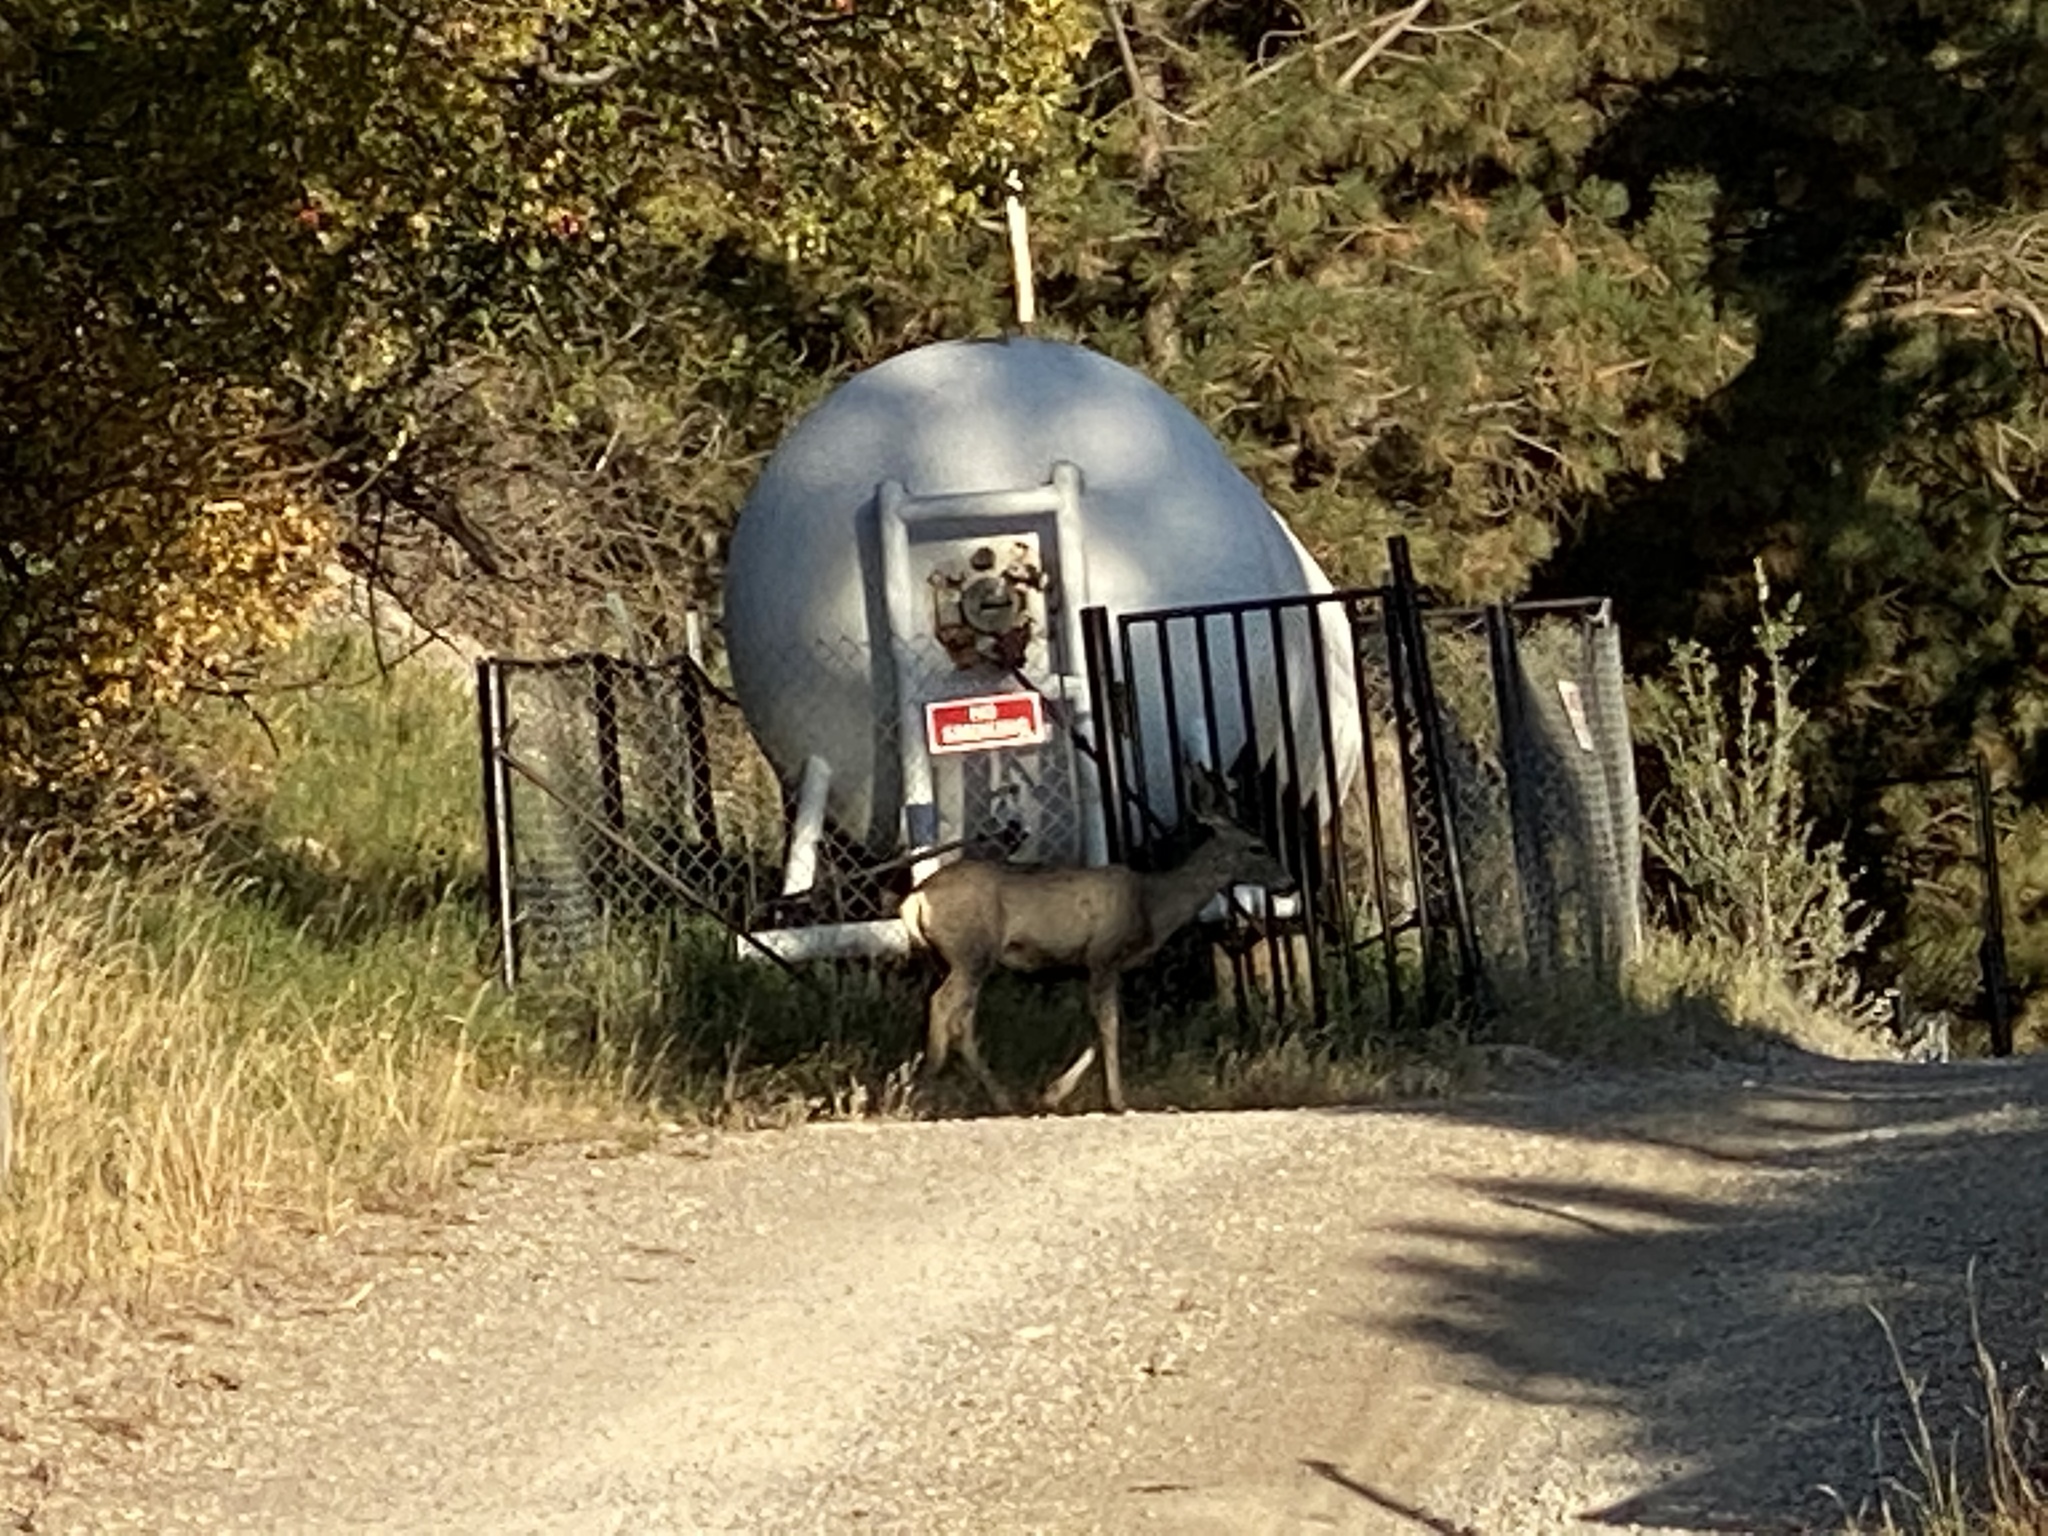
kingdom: Animalia
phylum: Chordata
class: Mammalia
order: Artiodactyla
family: Cervidae
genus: Odocoileus
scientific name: Odocoileus hemionus
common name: Mule deer
